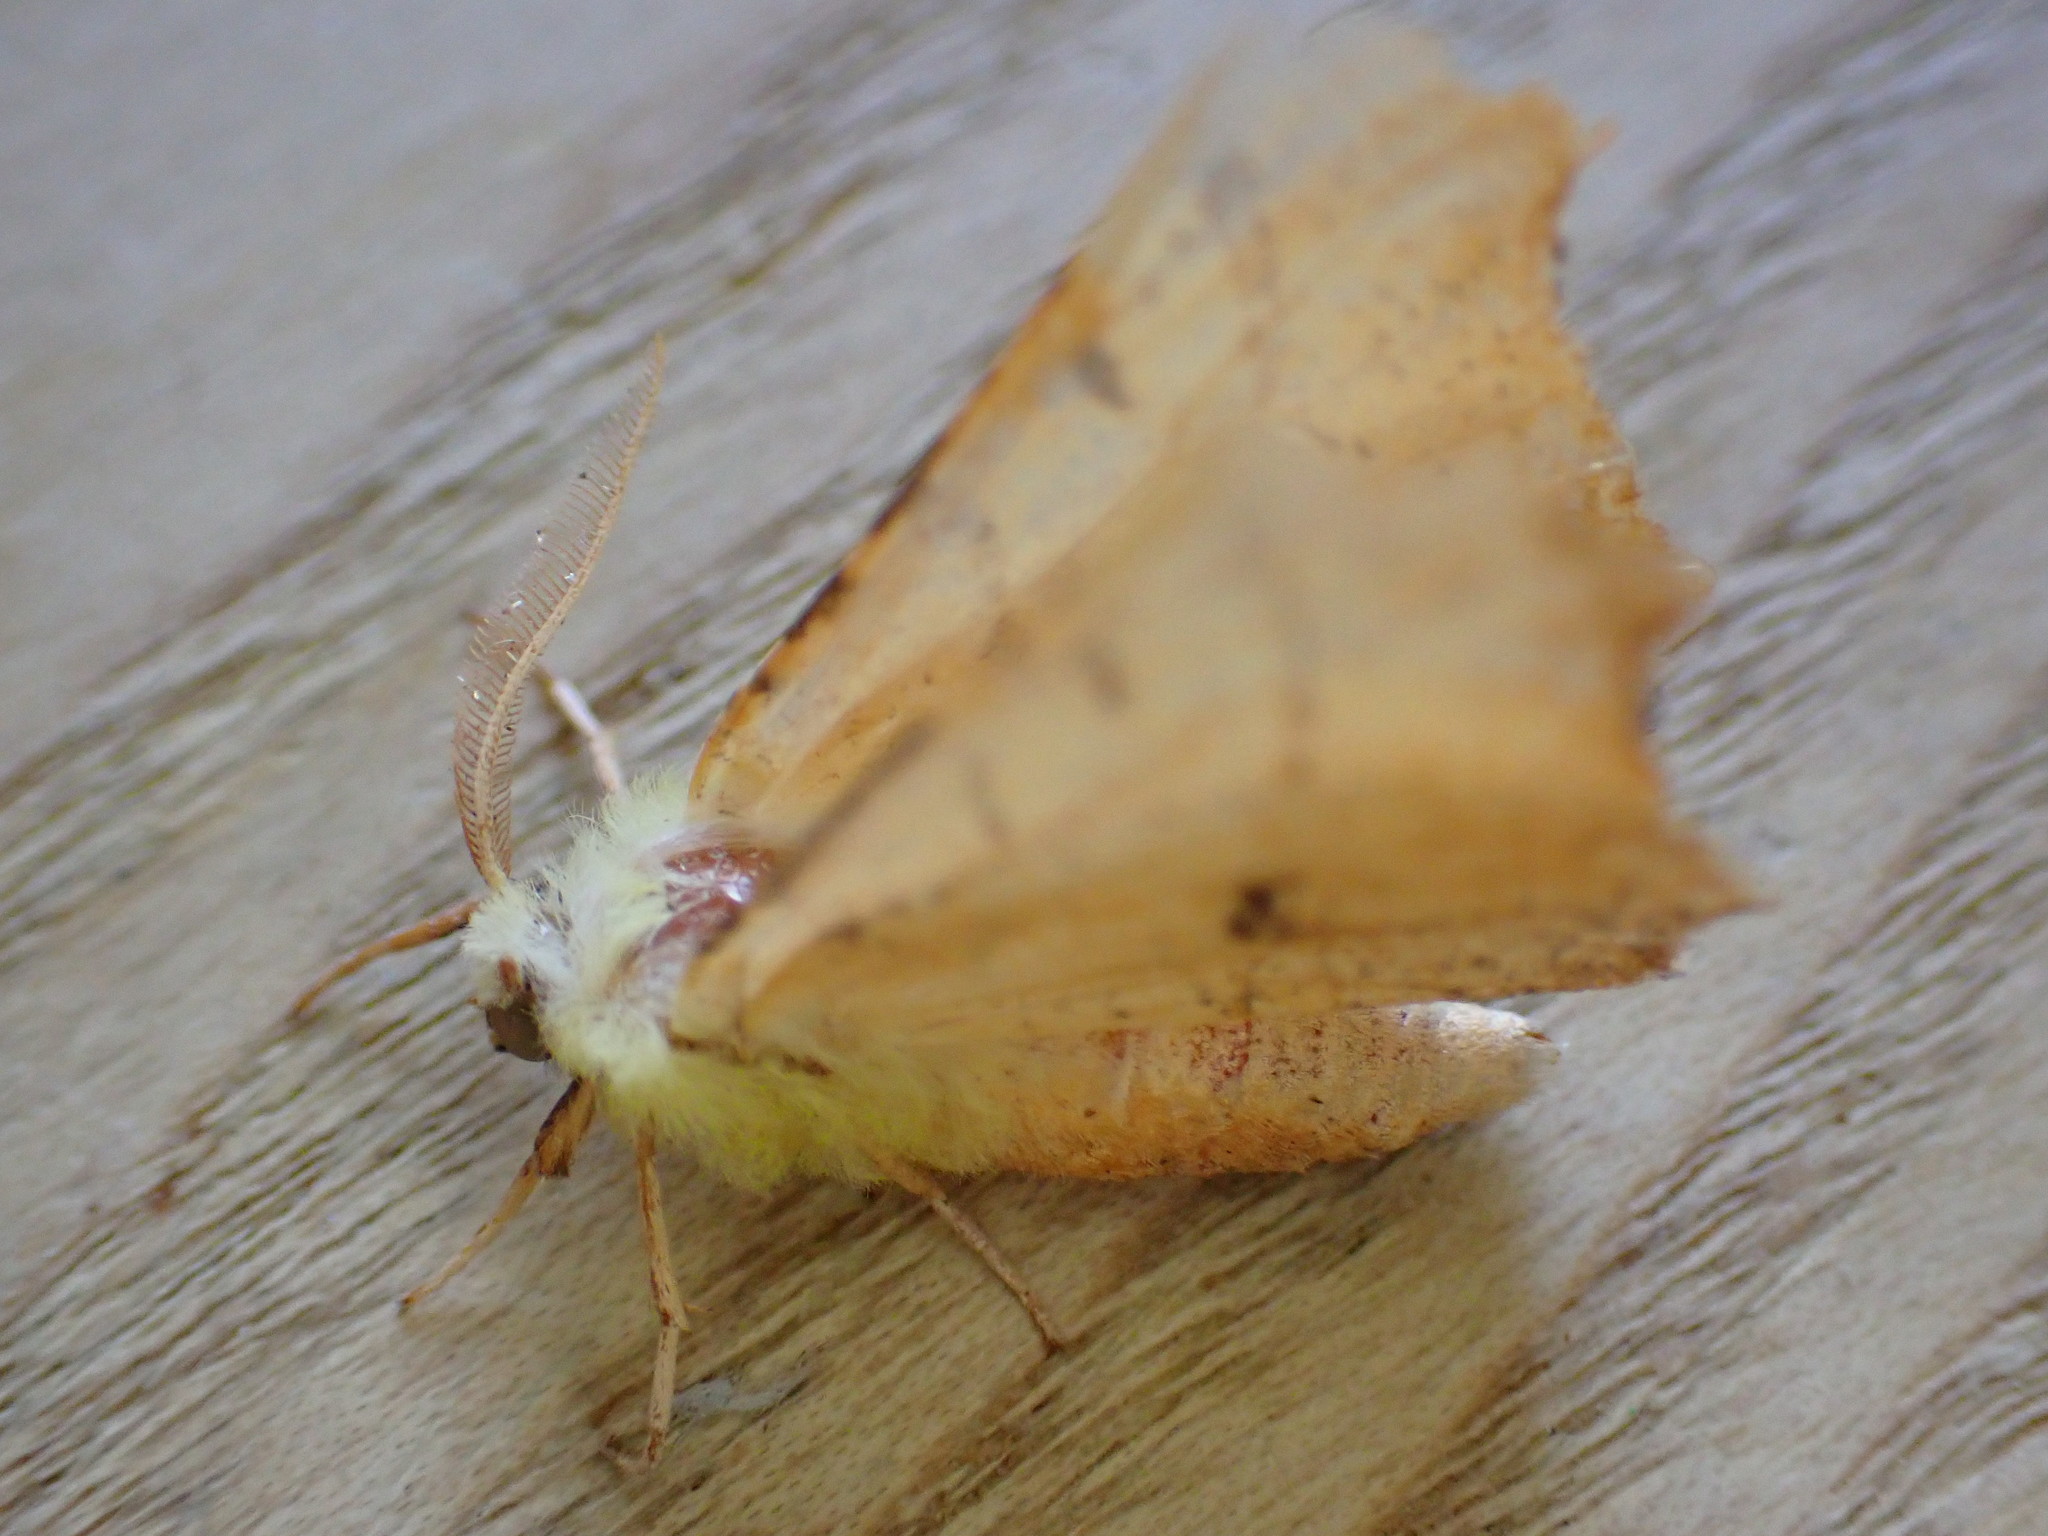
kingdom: Animalia
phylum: Arthropoda
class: Insecta
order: Lepidoptera
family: Geometridae
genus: Ennomos
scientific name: Ennomos alniaria
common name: Canary-shouldered thorn
